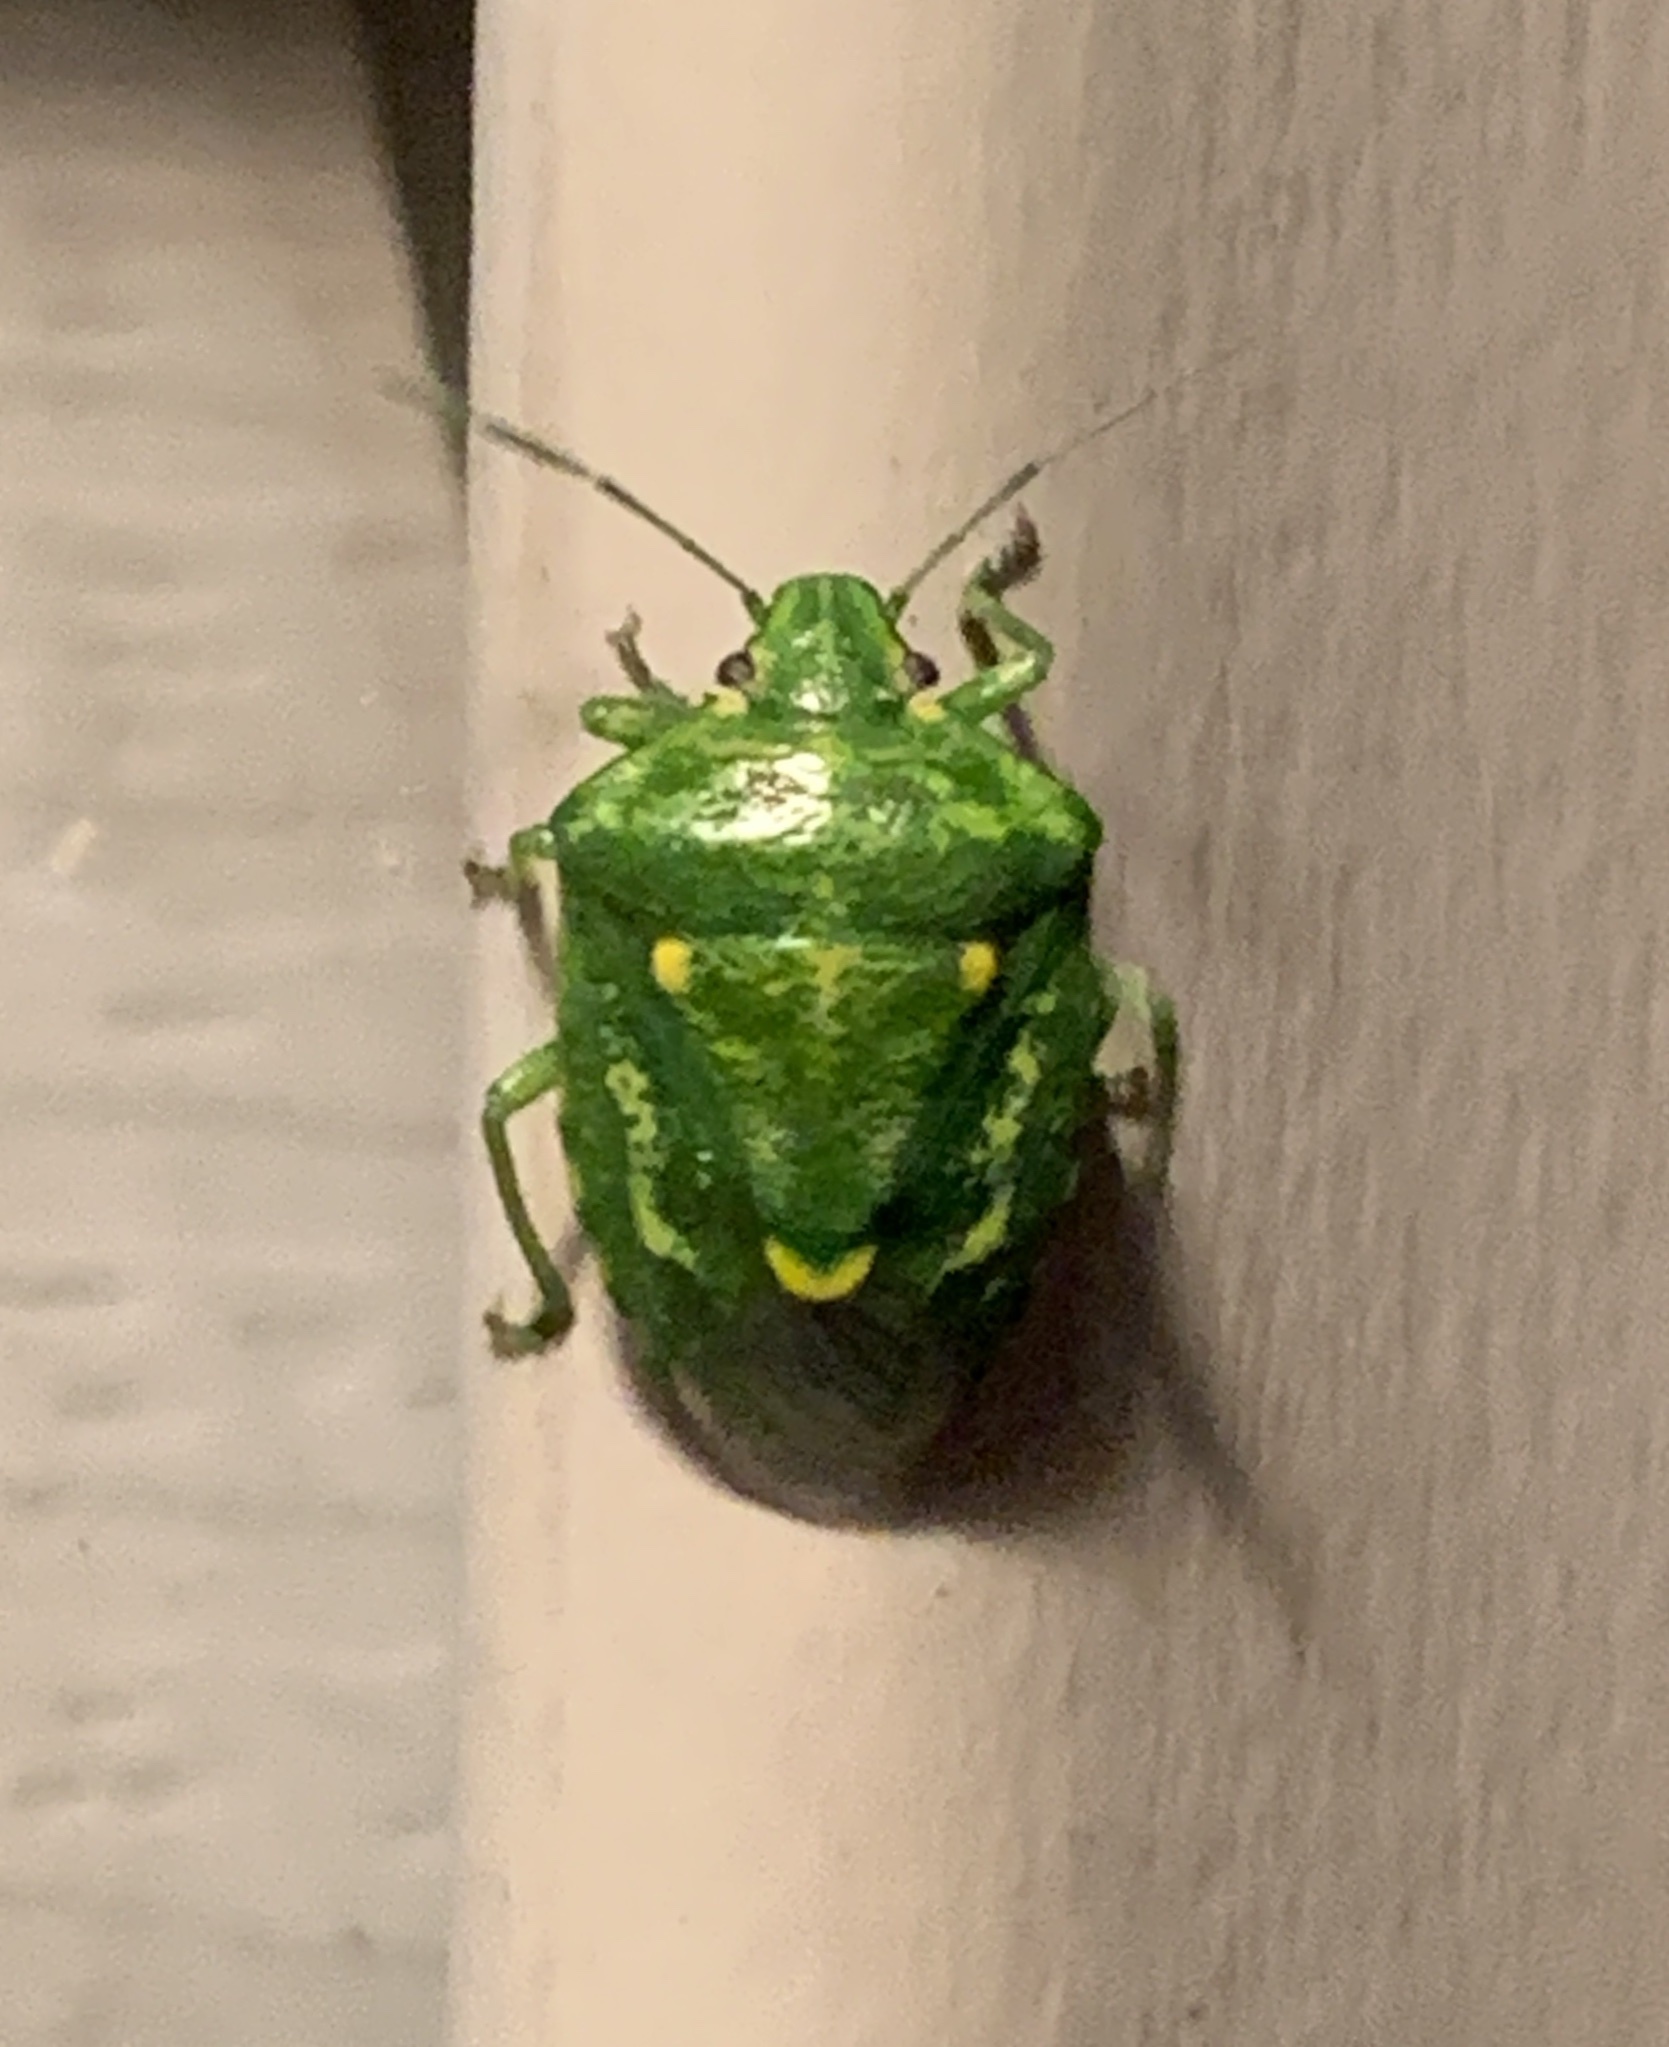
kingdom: Animalia
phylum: Arthropoda
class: Insecta
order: Hemiptera
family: Pentatomidae
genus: Banasa
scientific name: Banasa euchlora
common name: Cedar berry bug
